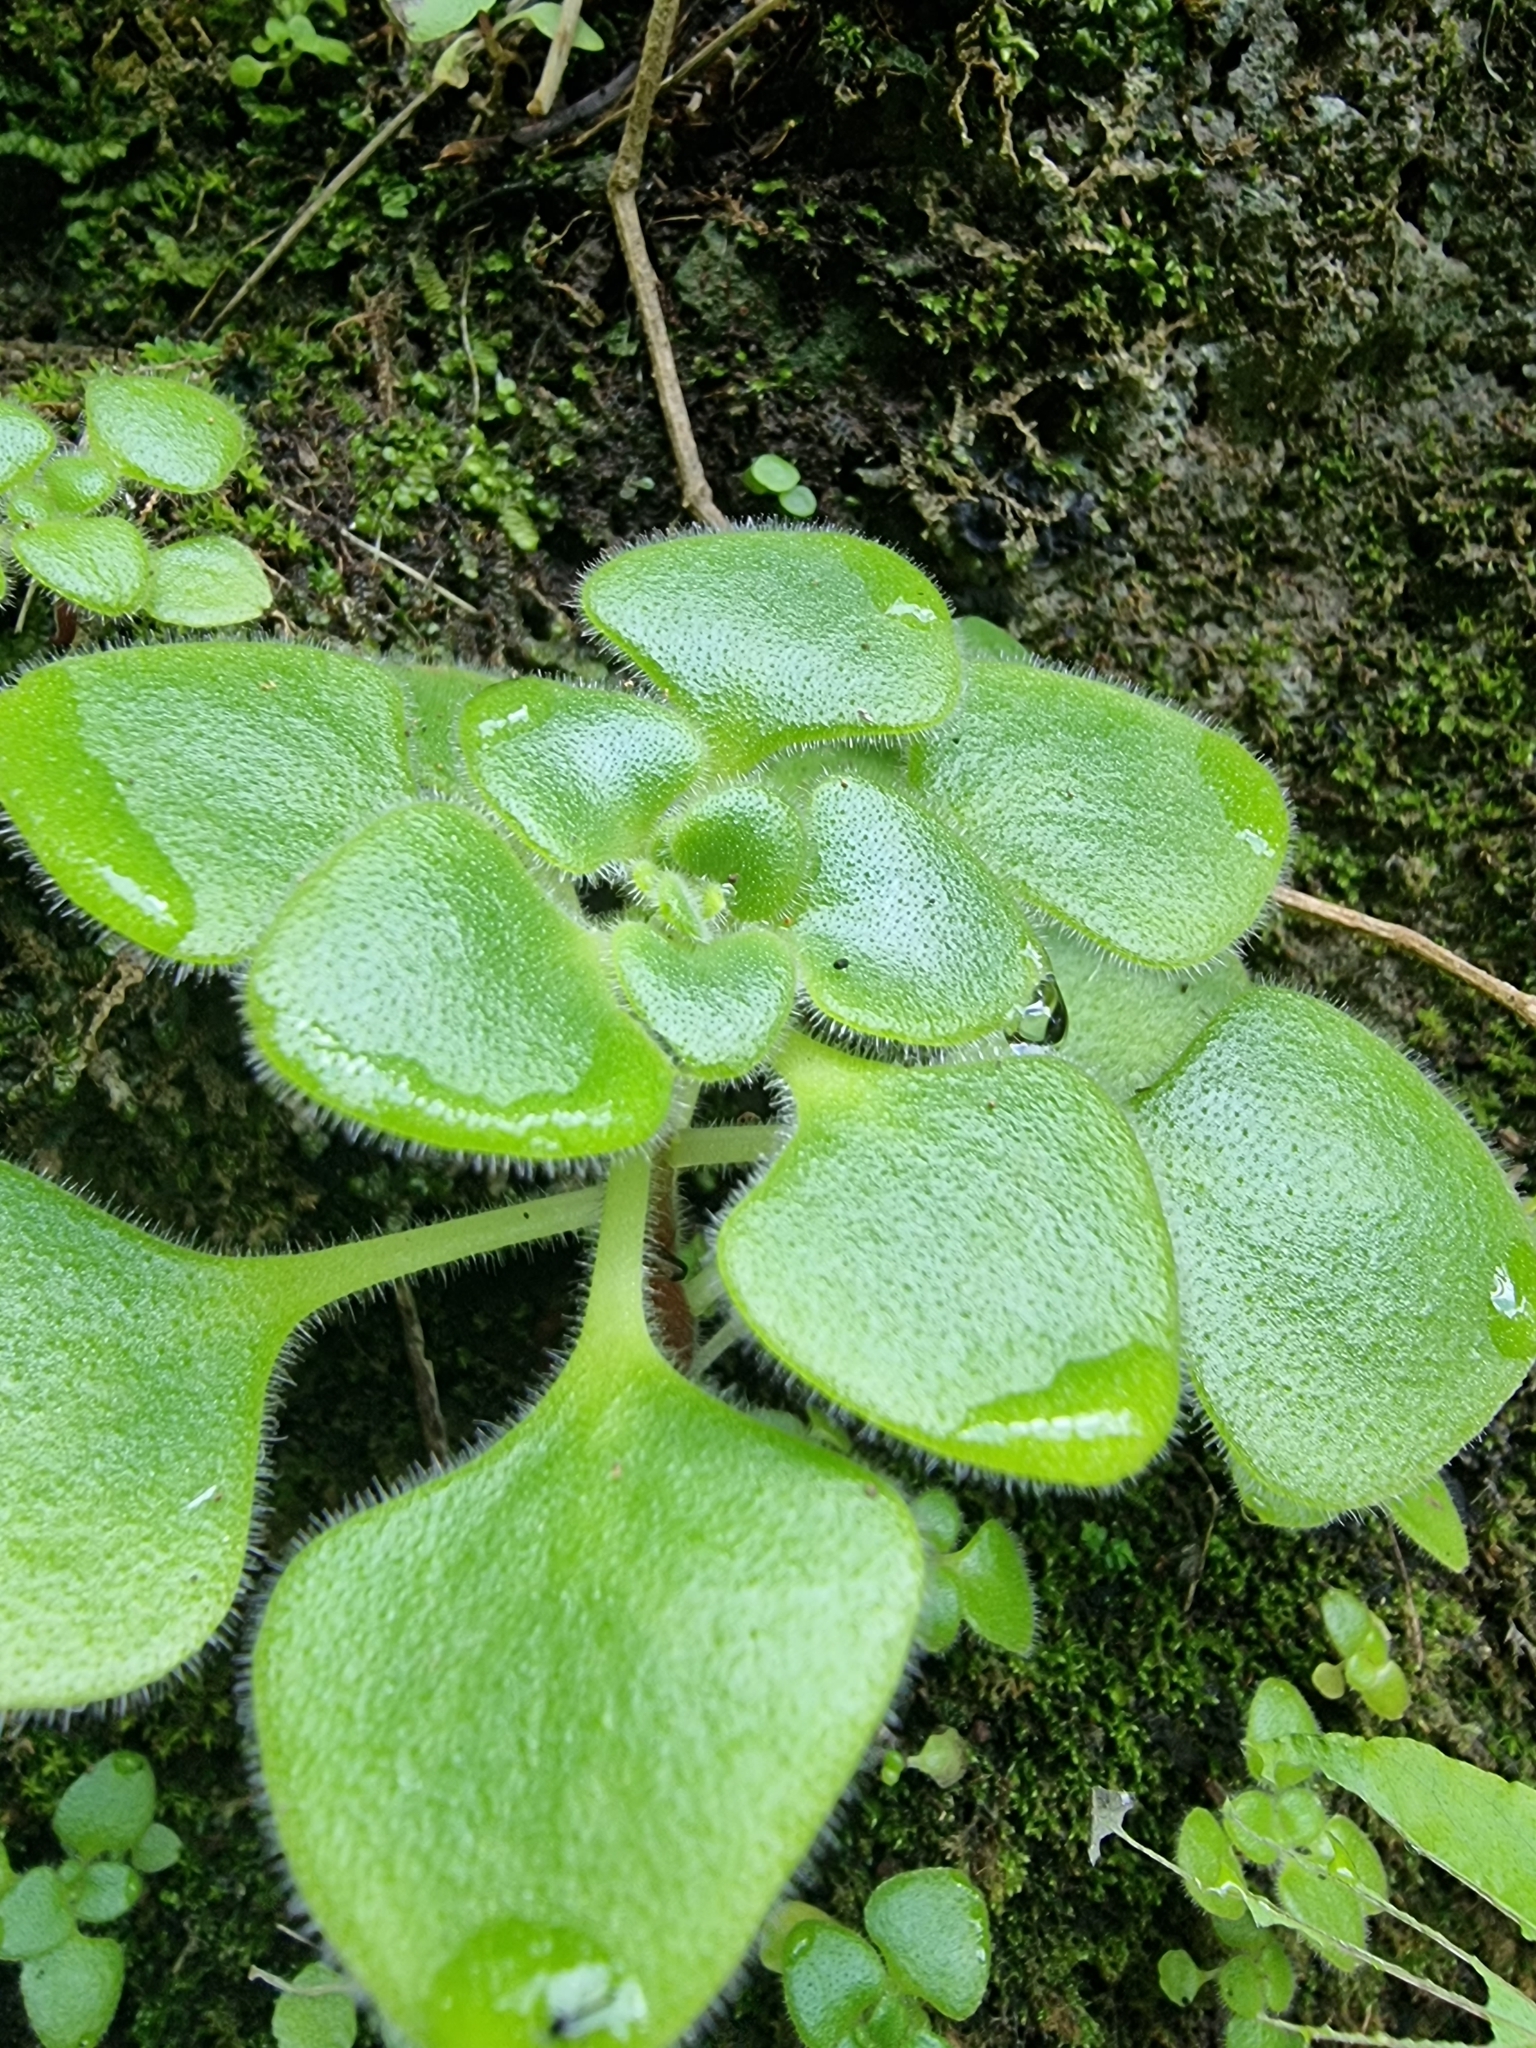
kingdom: Plantae
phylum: Tracheophyta
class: Magnoliopsida
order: Saxifragales
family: Crassulaceae
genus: Aichryson
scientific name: Aichryson villosum
